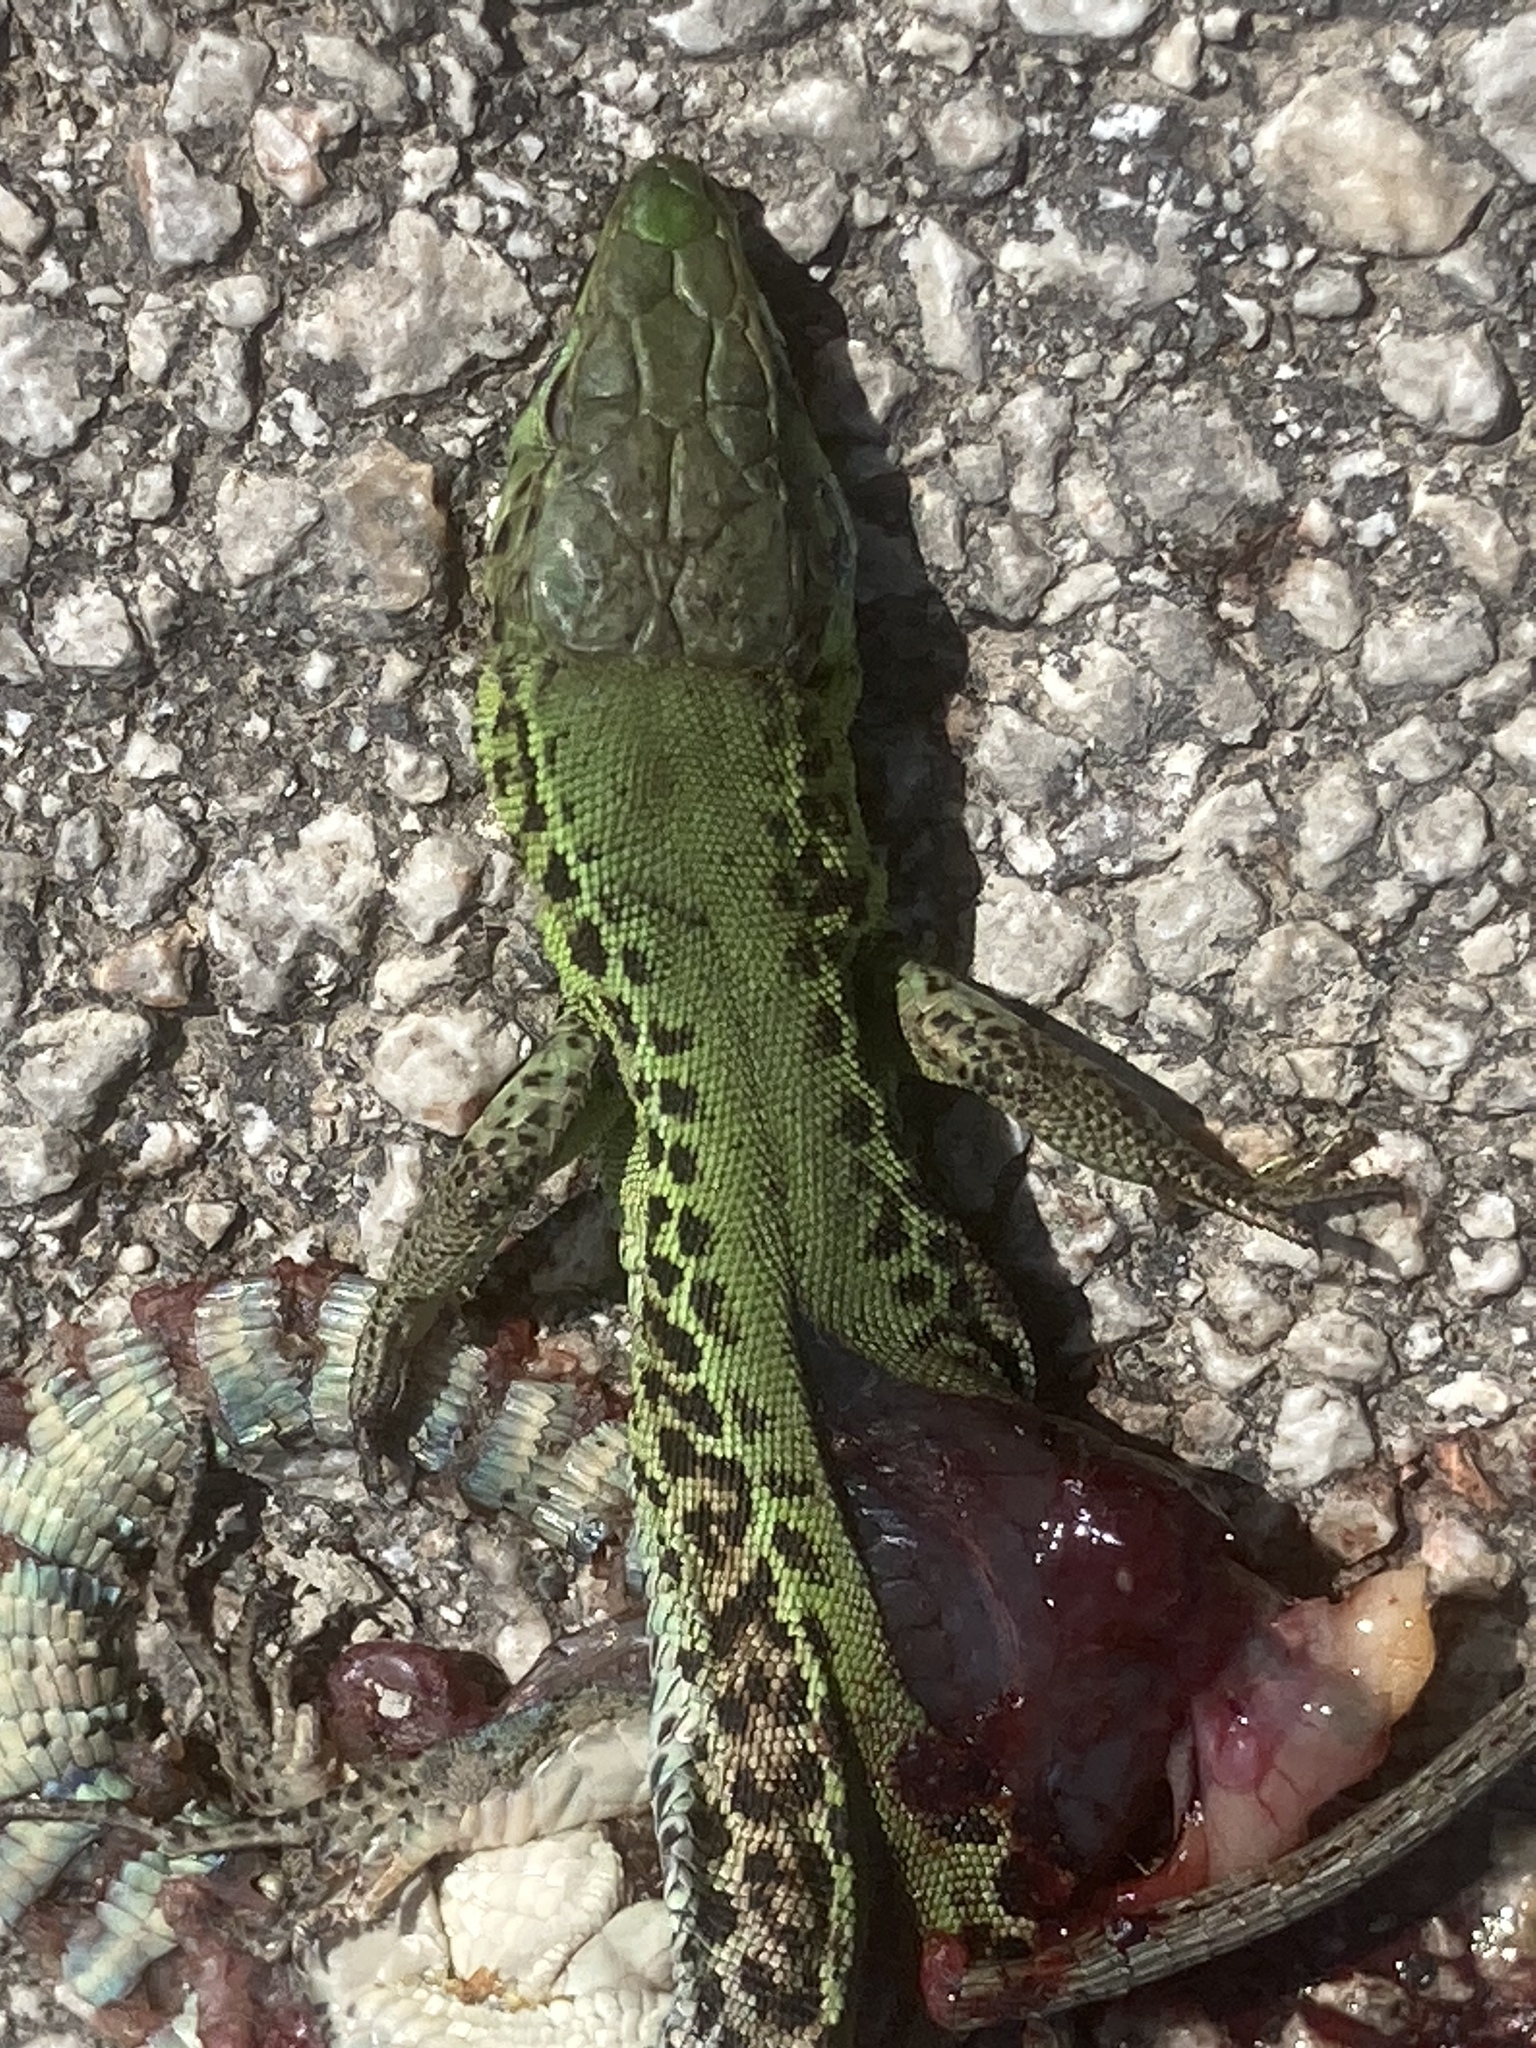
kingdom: Animalia
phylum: Chordata
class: Squamata
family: Lacertidae
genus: Podarcis
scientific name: Podarcis ionicus
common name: Ionian wall lizard
